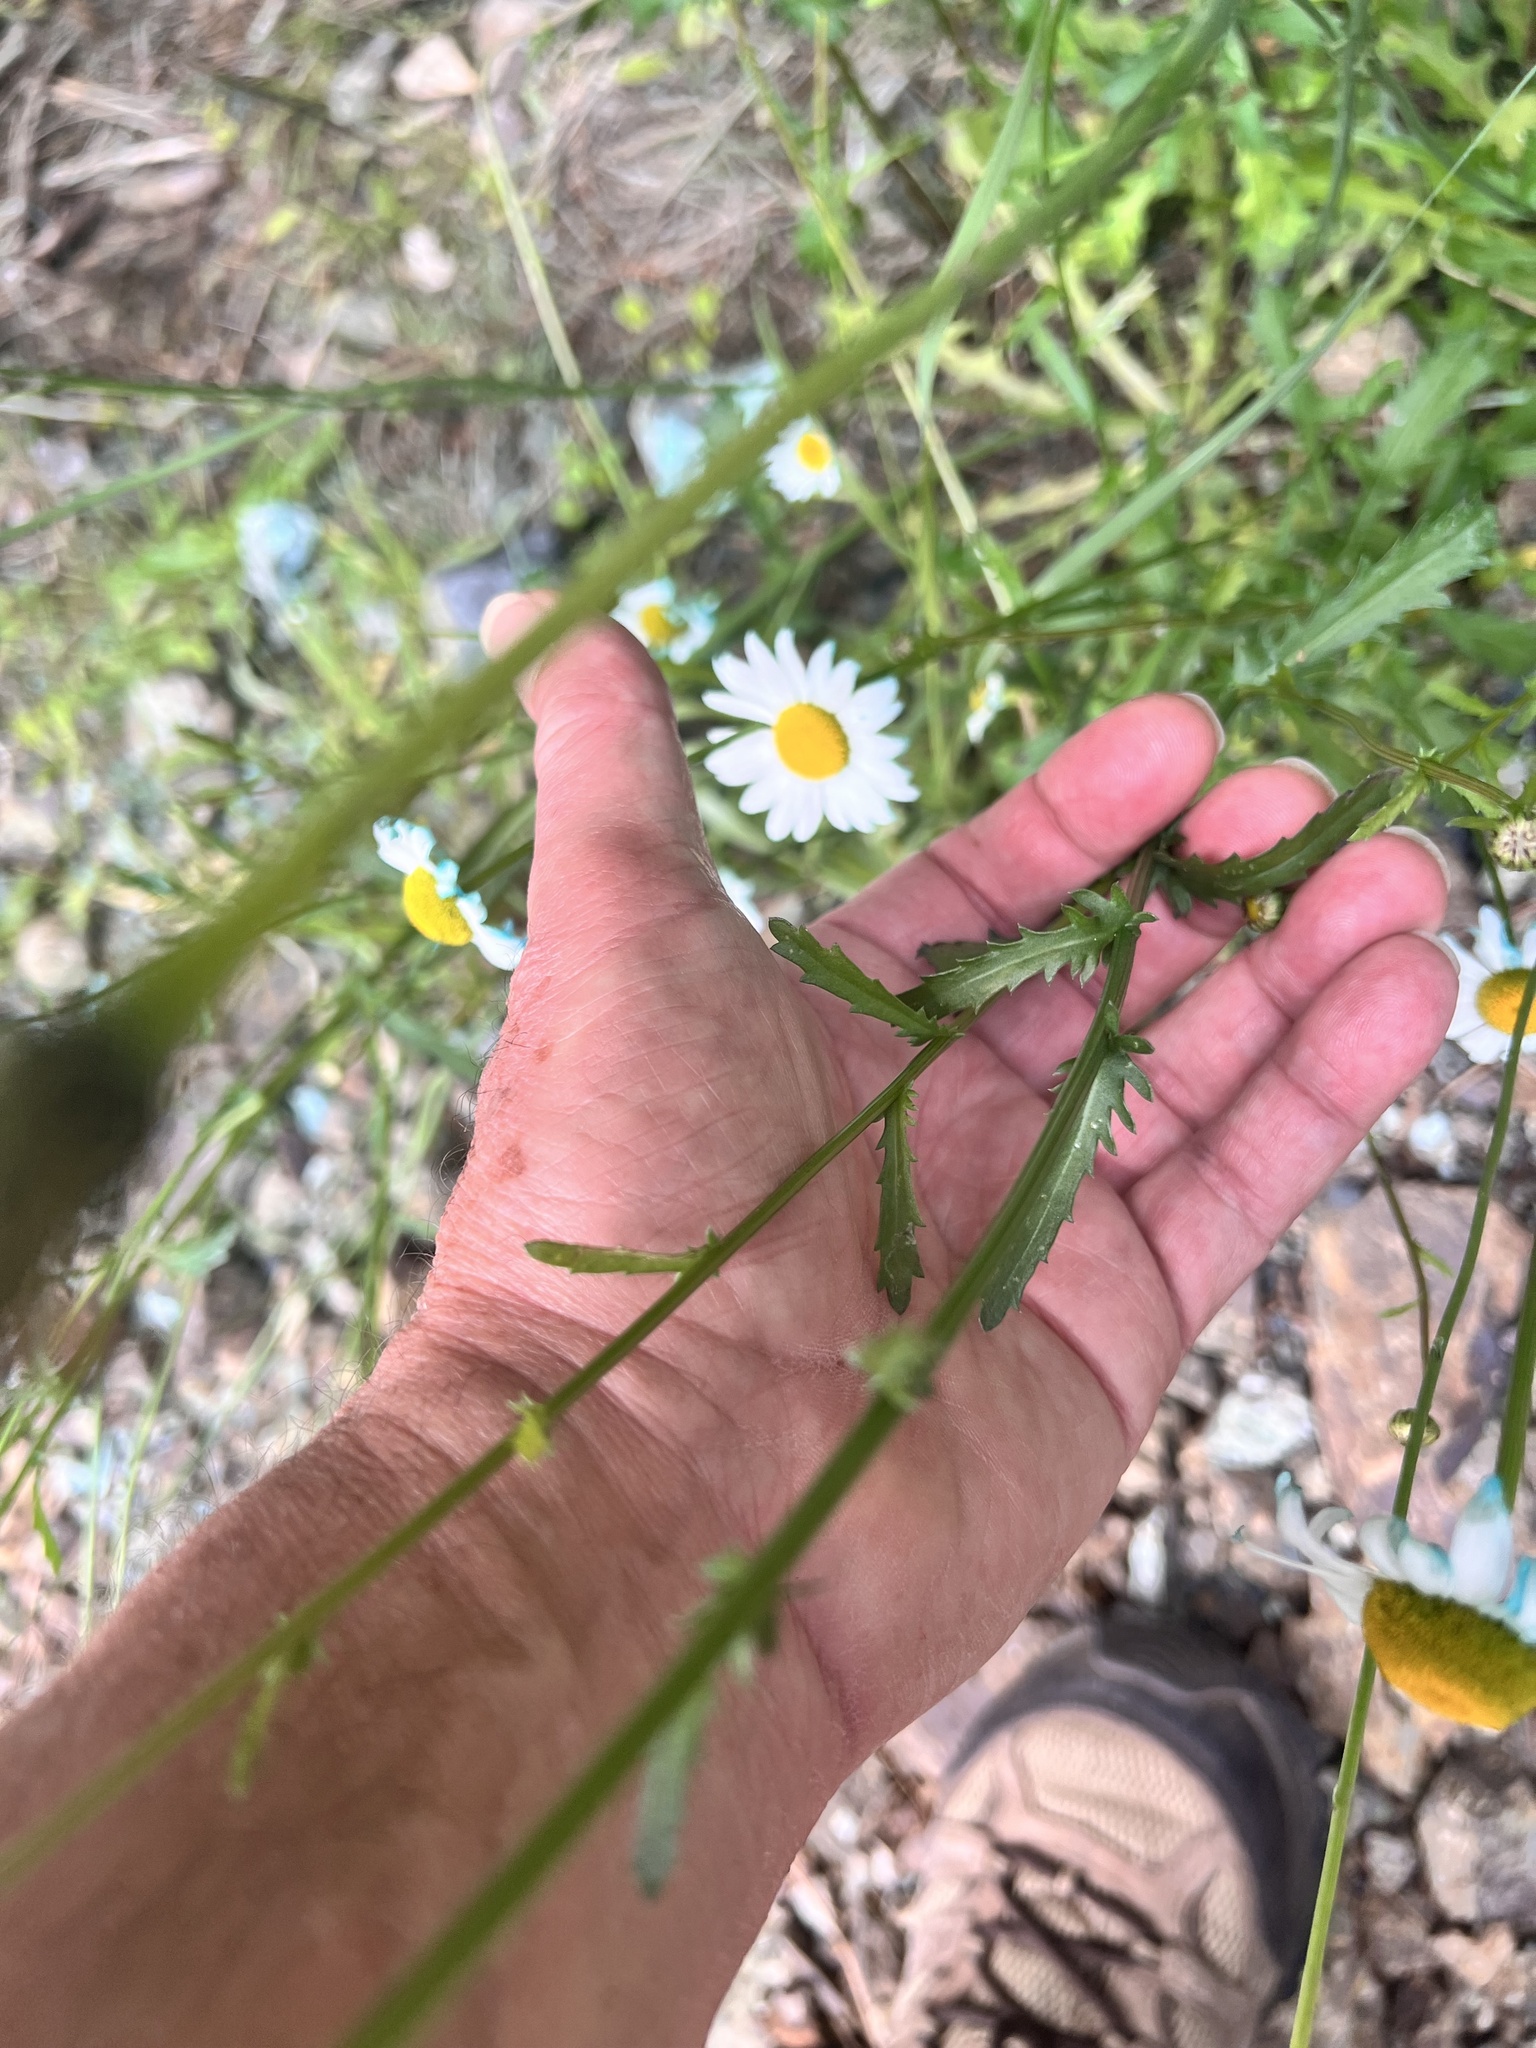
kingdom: Plantae
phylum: Tracheophyta
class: Magnoliopsida
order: Asterales
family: Asteraceae
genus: Leucanthemum
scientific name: Leucanthemum vulgare
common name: Oxeye daisy
